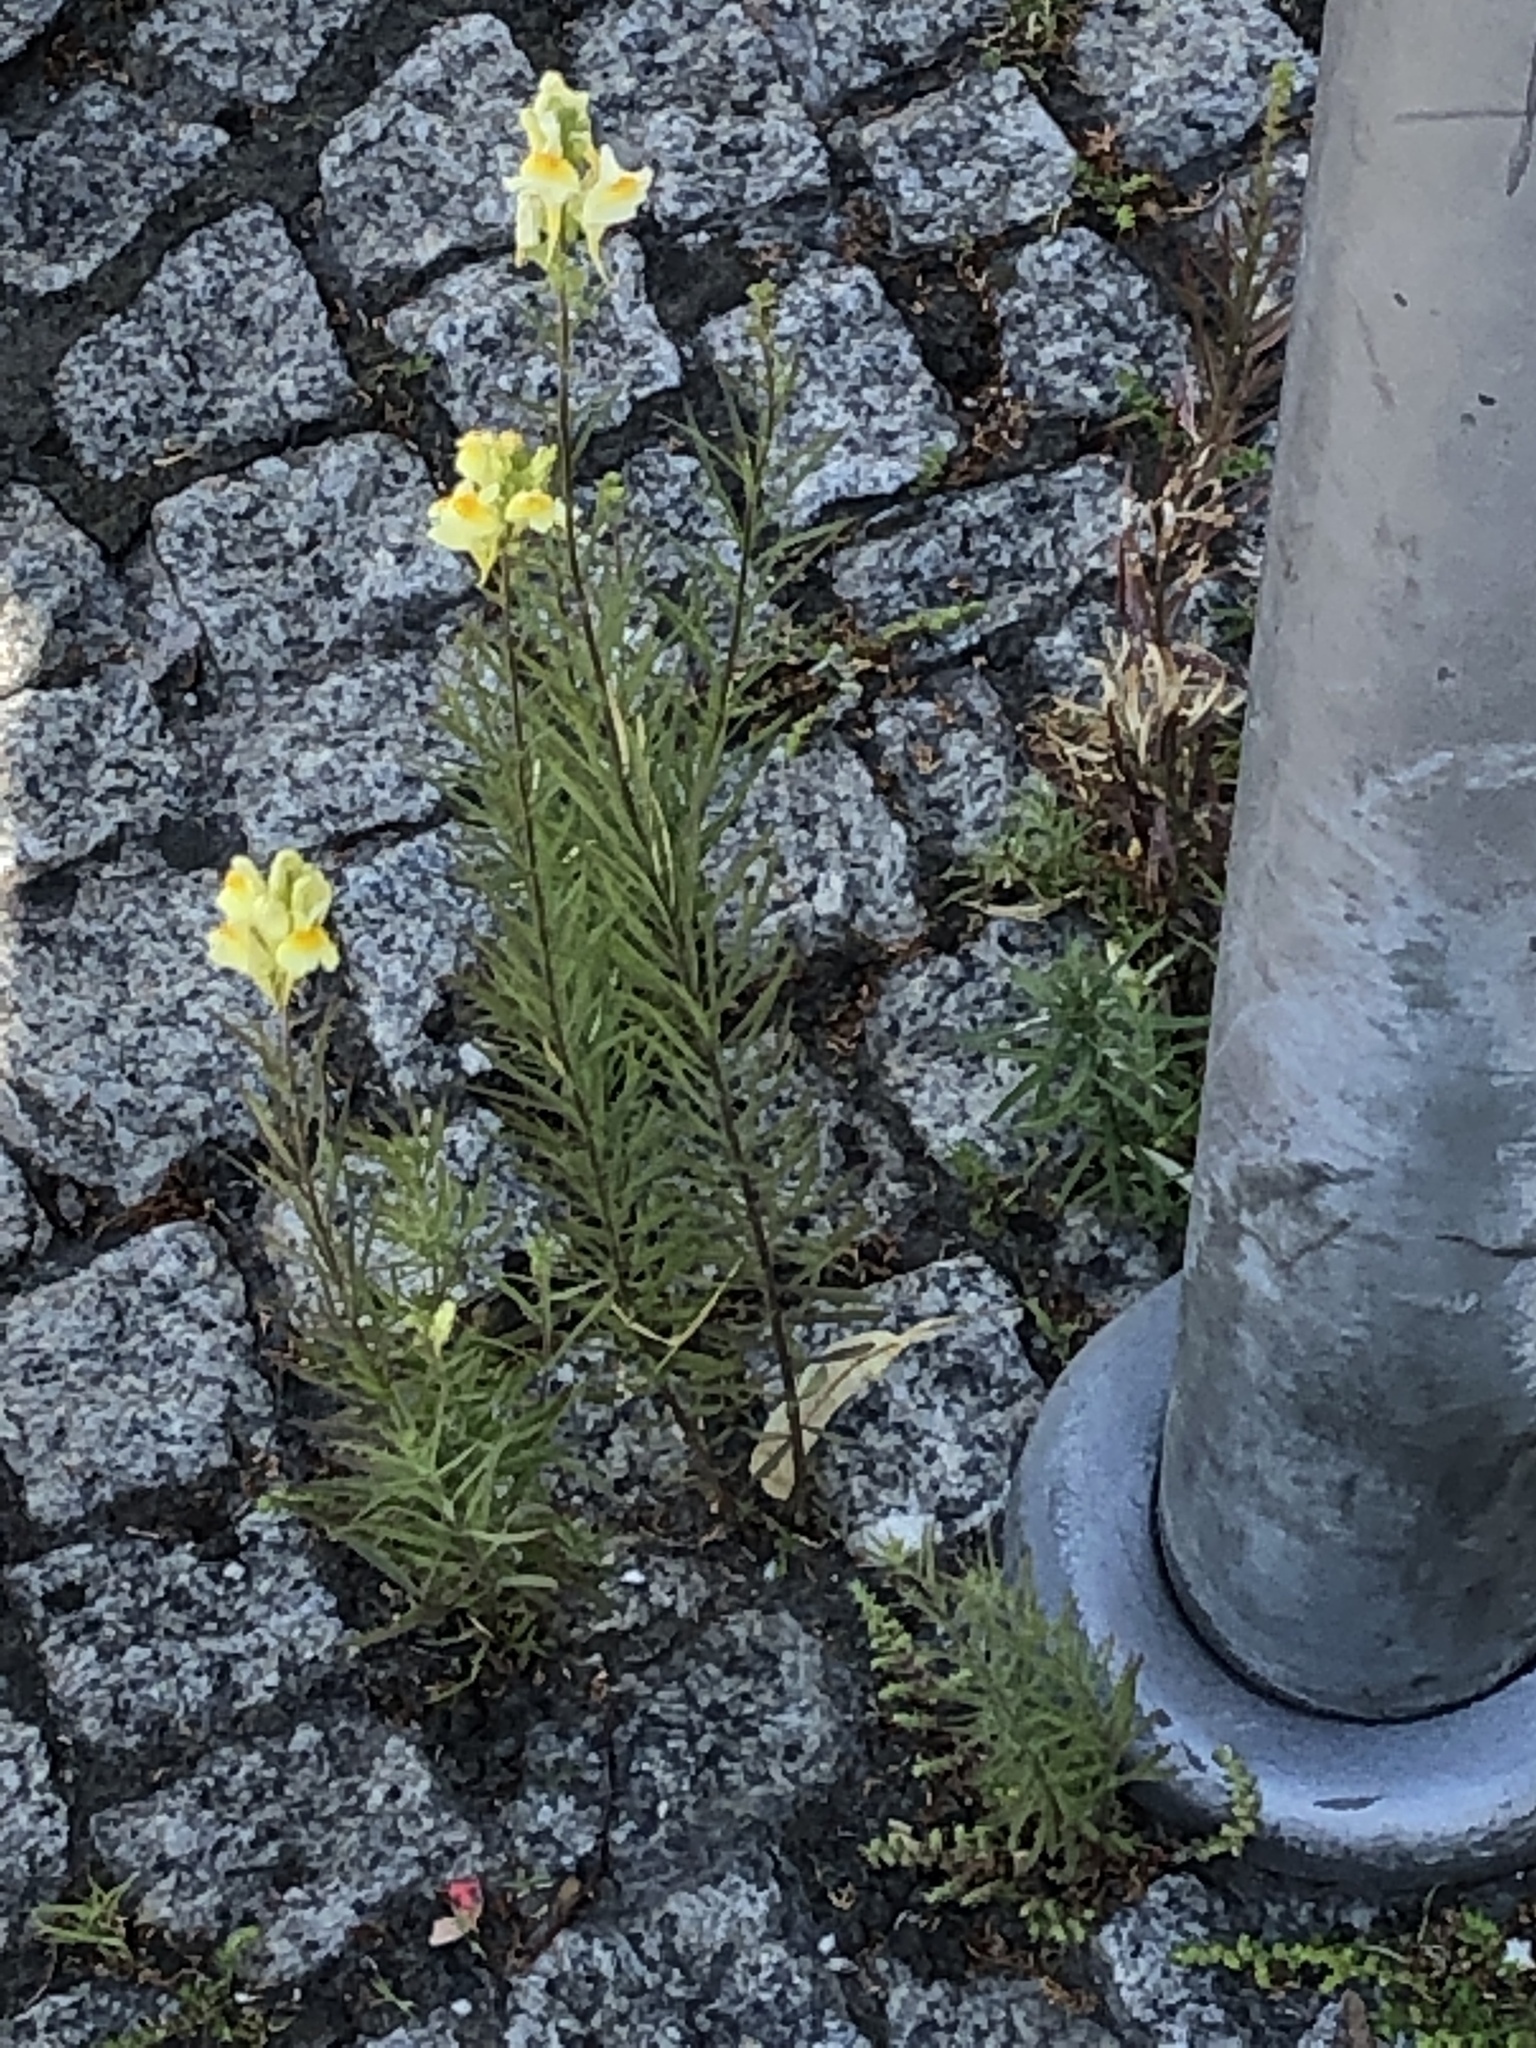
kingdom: Plantae
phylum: Tracheophyta
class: Magnoliopsida
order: Lamiales
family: Plantaginaceae
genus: Linaria
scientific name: Linaria vulgaris
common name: Butter and eggs
